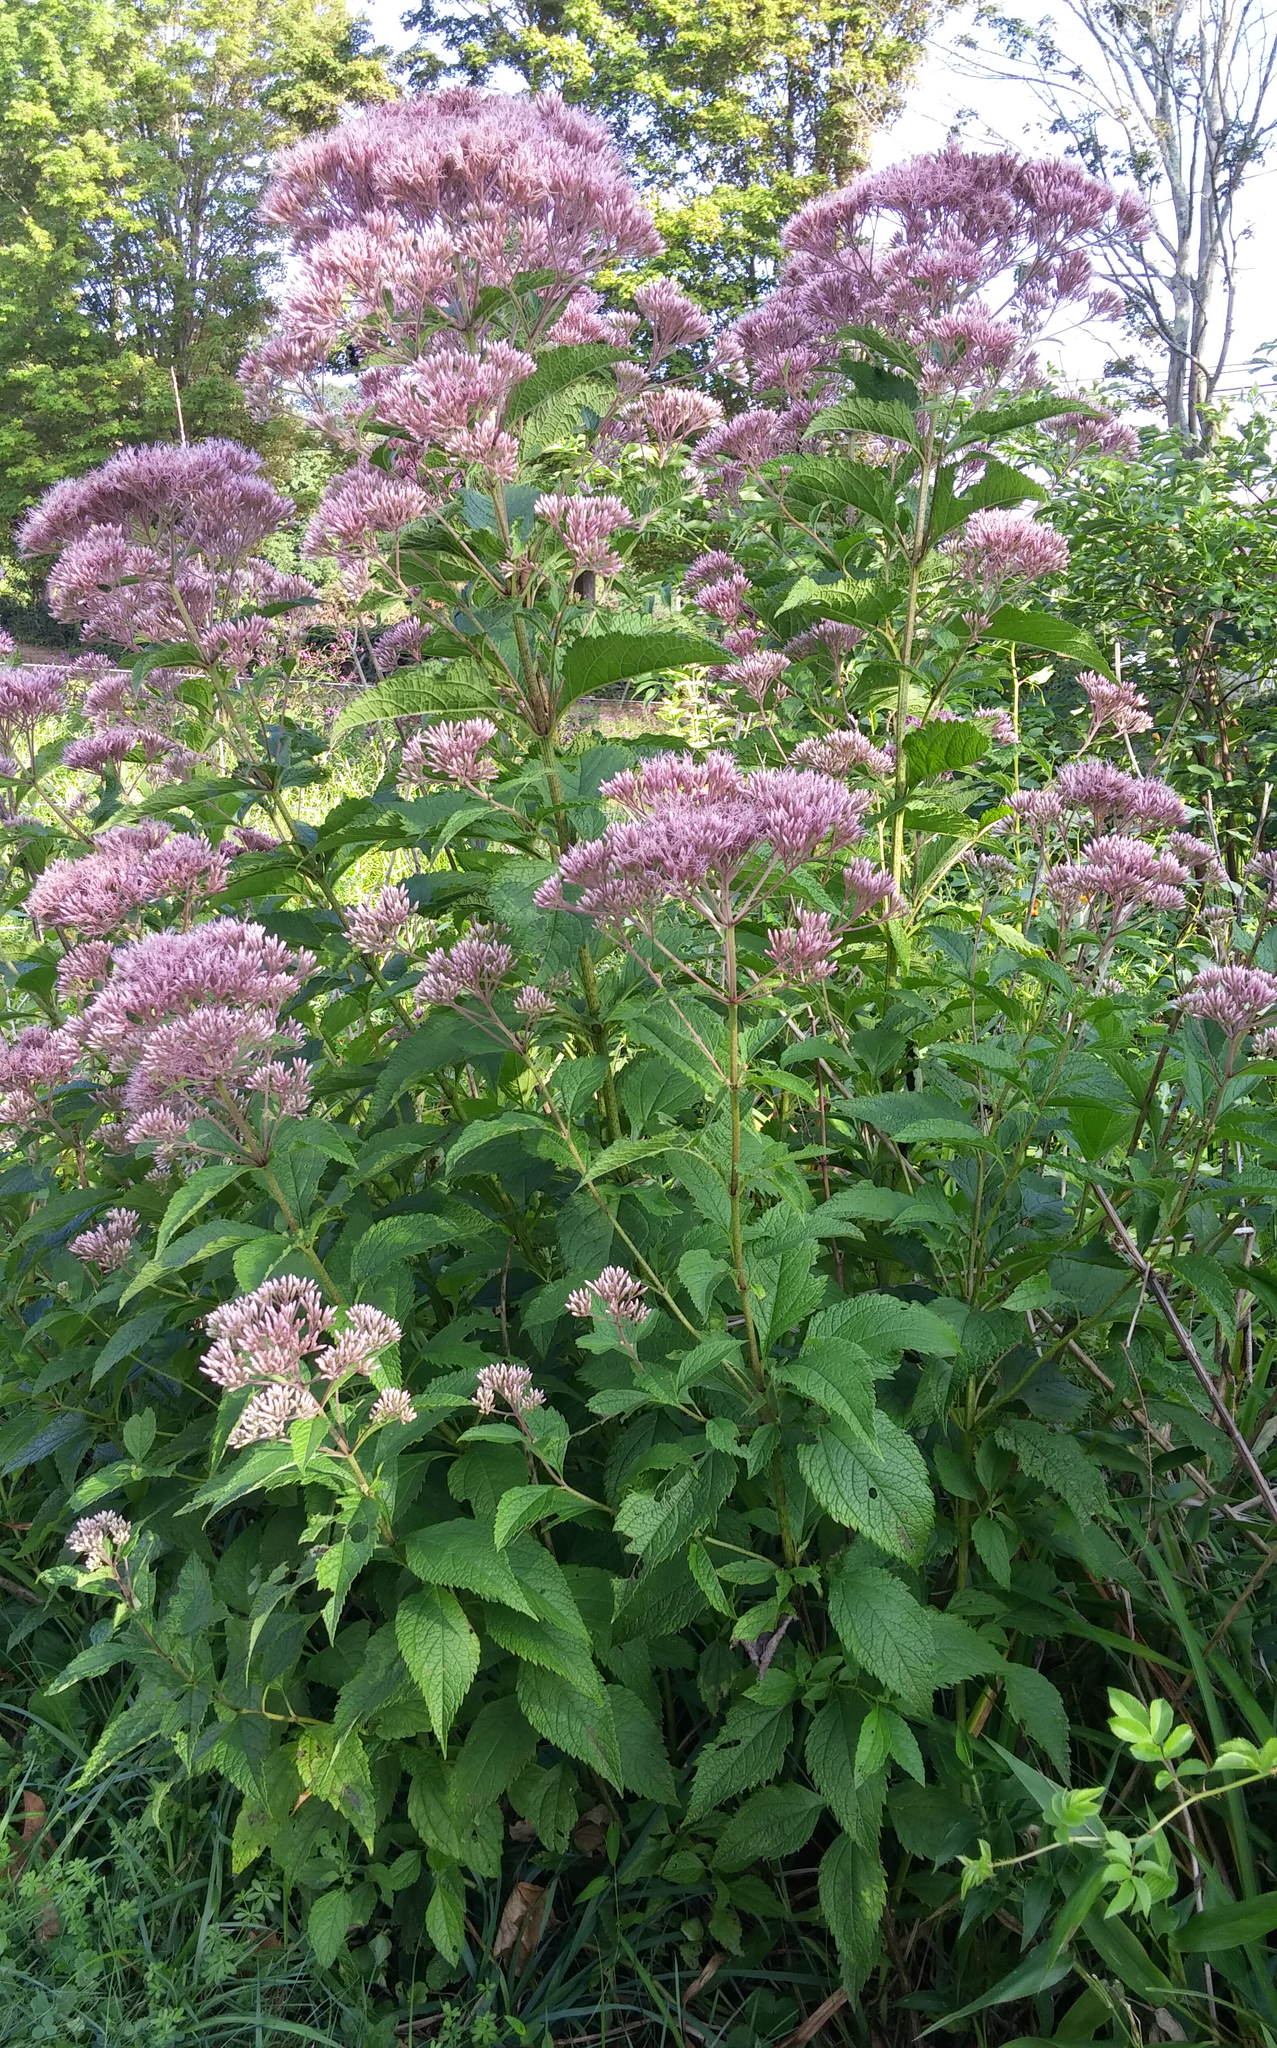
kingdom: Plantae
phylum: Tracheophyta
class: Magnoliopsida
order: Asterales
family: Asteraceae
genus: Eutrochium
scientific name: Eutrochium dubium
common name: Coastal plain joe pye weed
